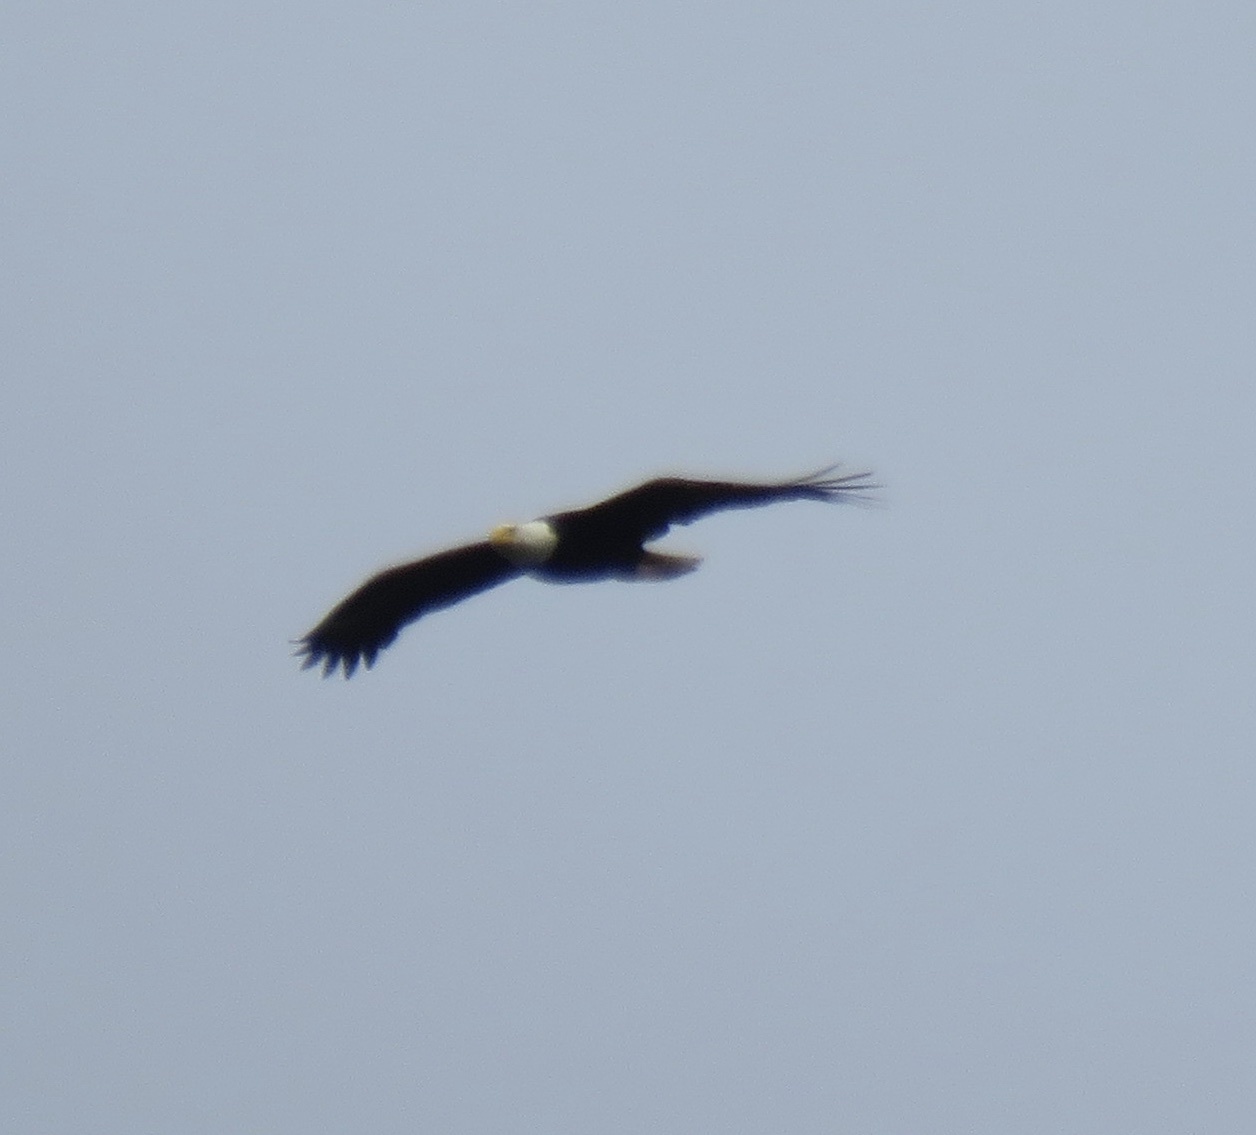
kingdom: Animalia
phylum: Chordata
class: Aves
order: Accipitriformes
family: Accipitridae
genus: Haliaeetus
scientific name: Haliaeetus leucocephalus
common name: Bald eagle
